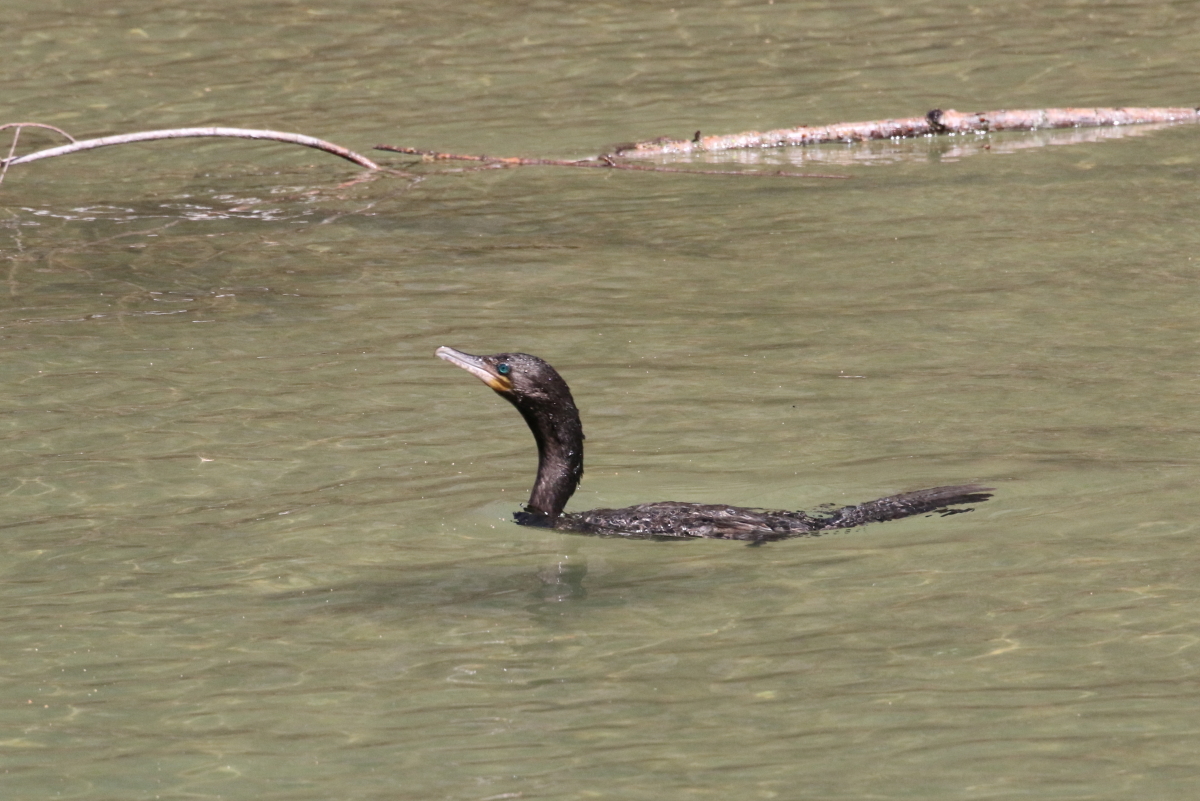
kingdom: Animalia
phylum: Chordata
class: Aves
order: Suliformes
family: Phalacrocoracidae
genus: Phalacrocorax
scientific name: Phalacrocorax brasilianus
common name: Neotropic cormorant
